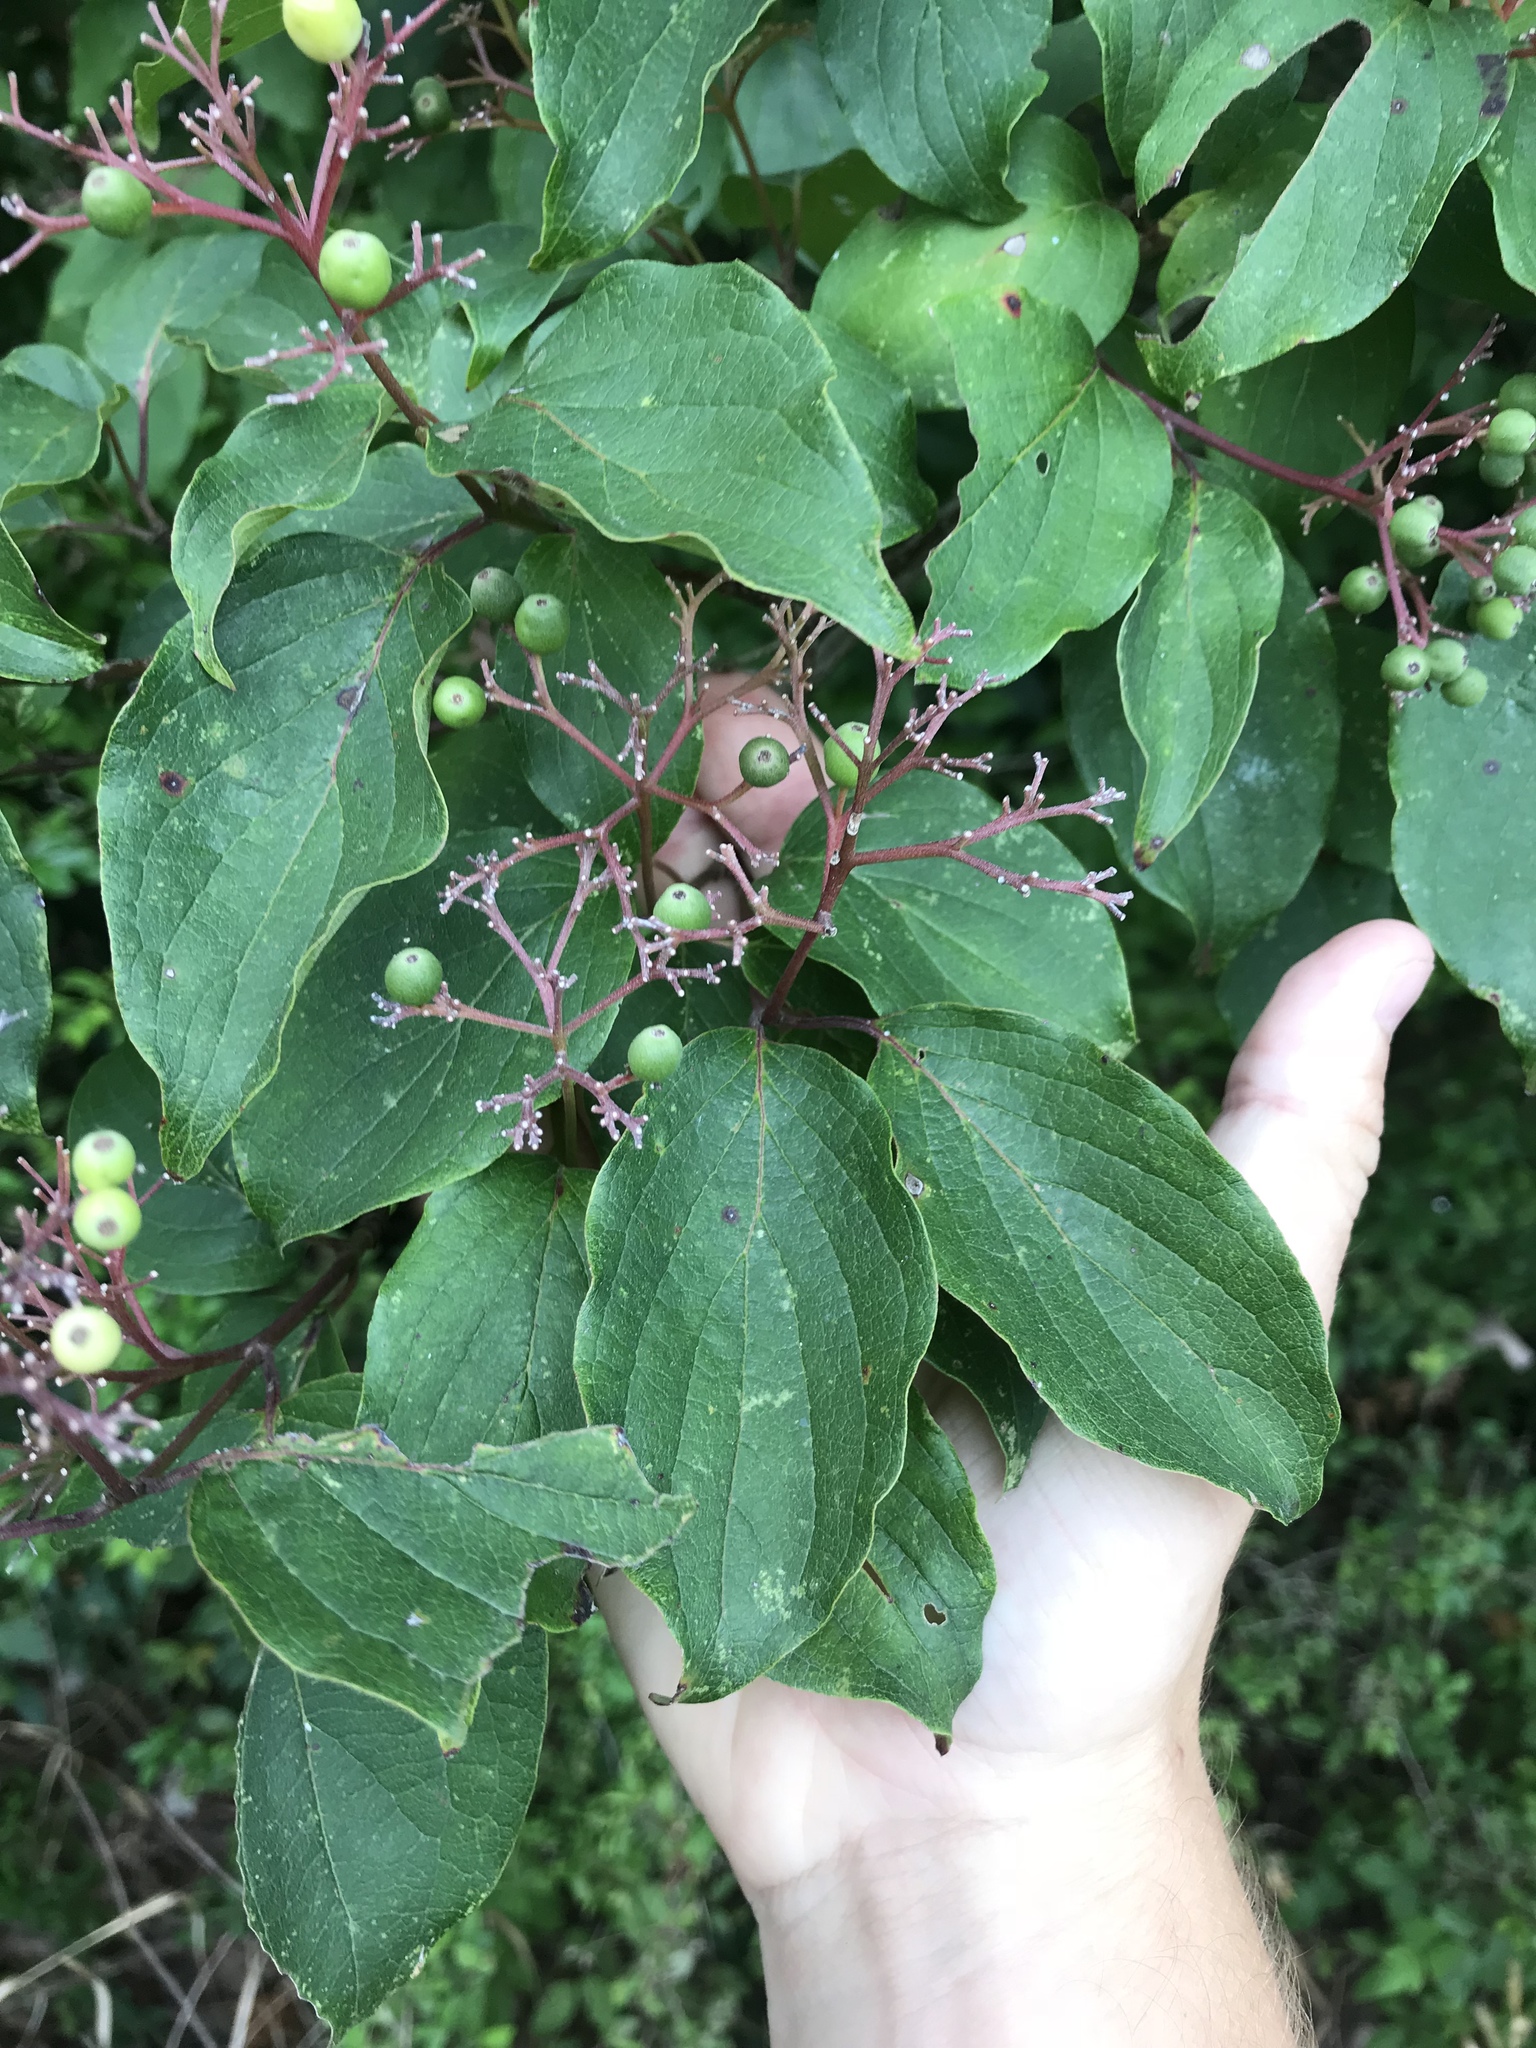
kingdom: Plantae
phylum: Tracheophyta
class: Magnoliopsida
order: Cornales
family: Cornaceae
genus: Cornus
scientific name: Cornus drummondii
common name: Rough-leaf dogwood
